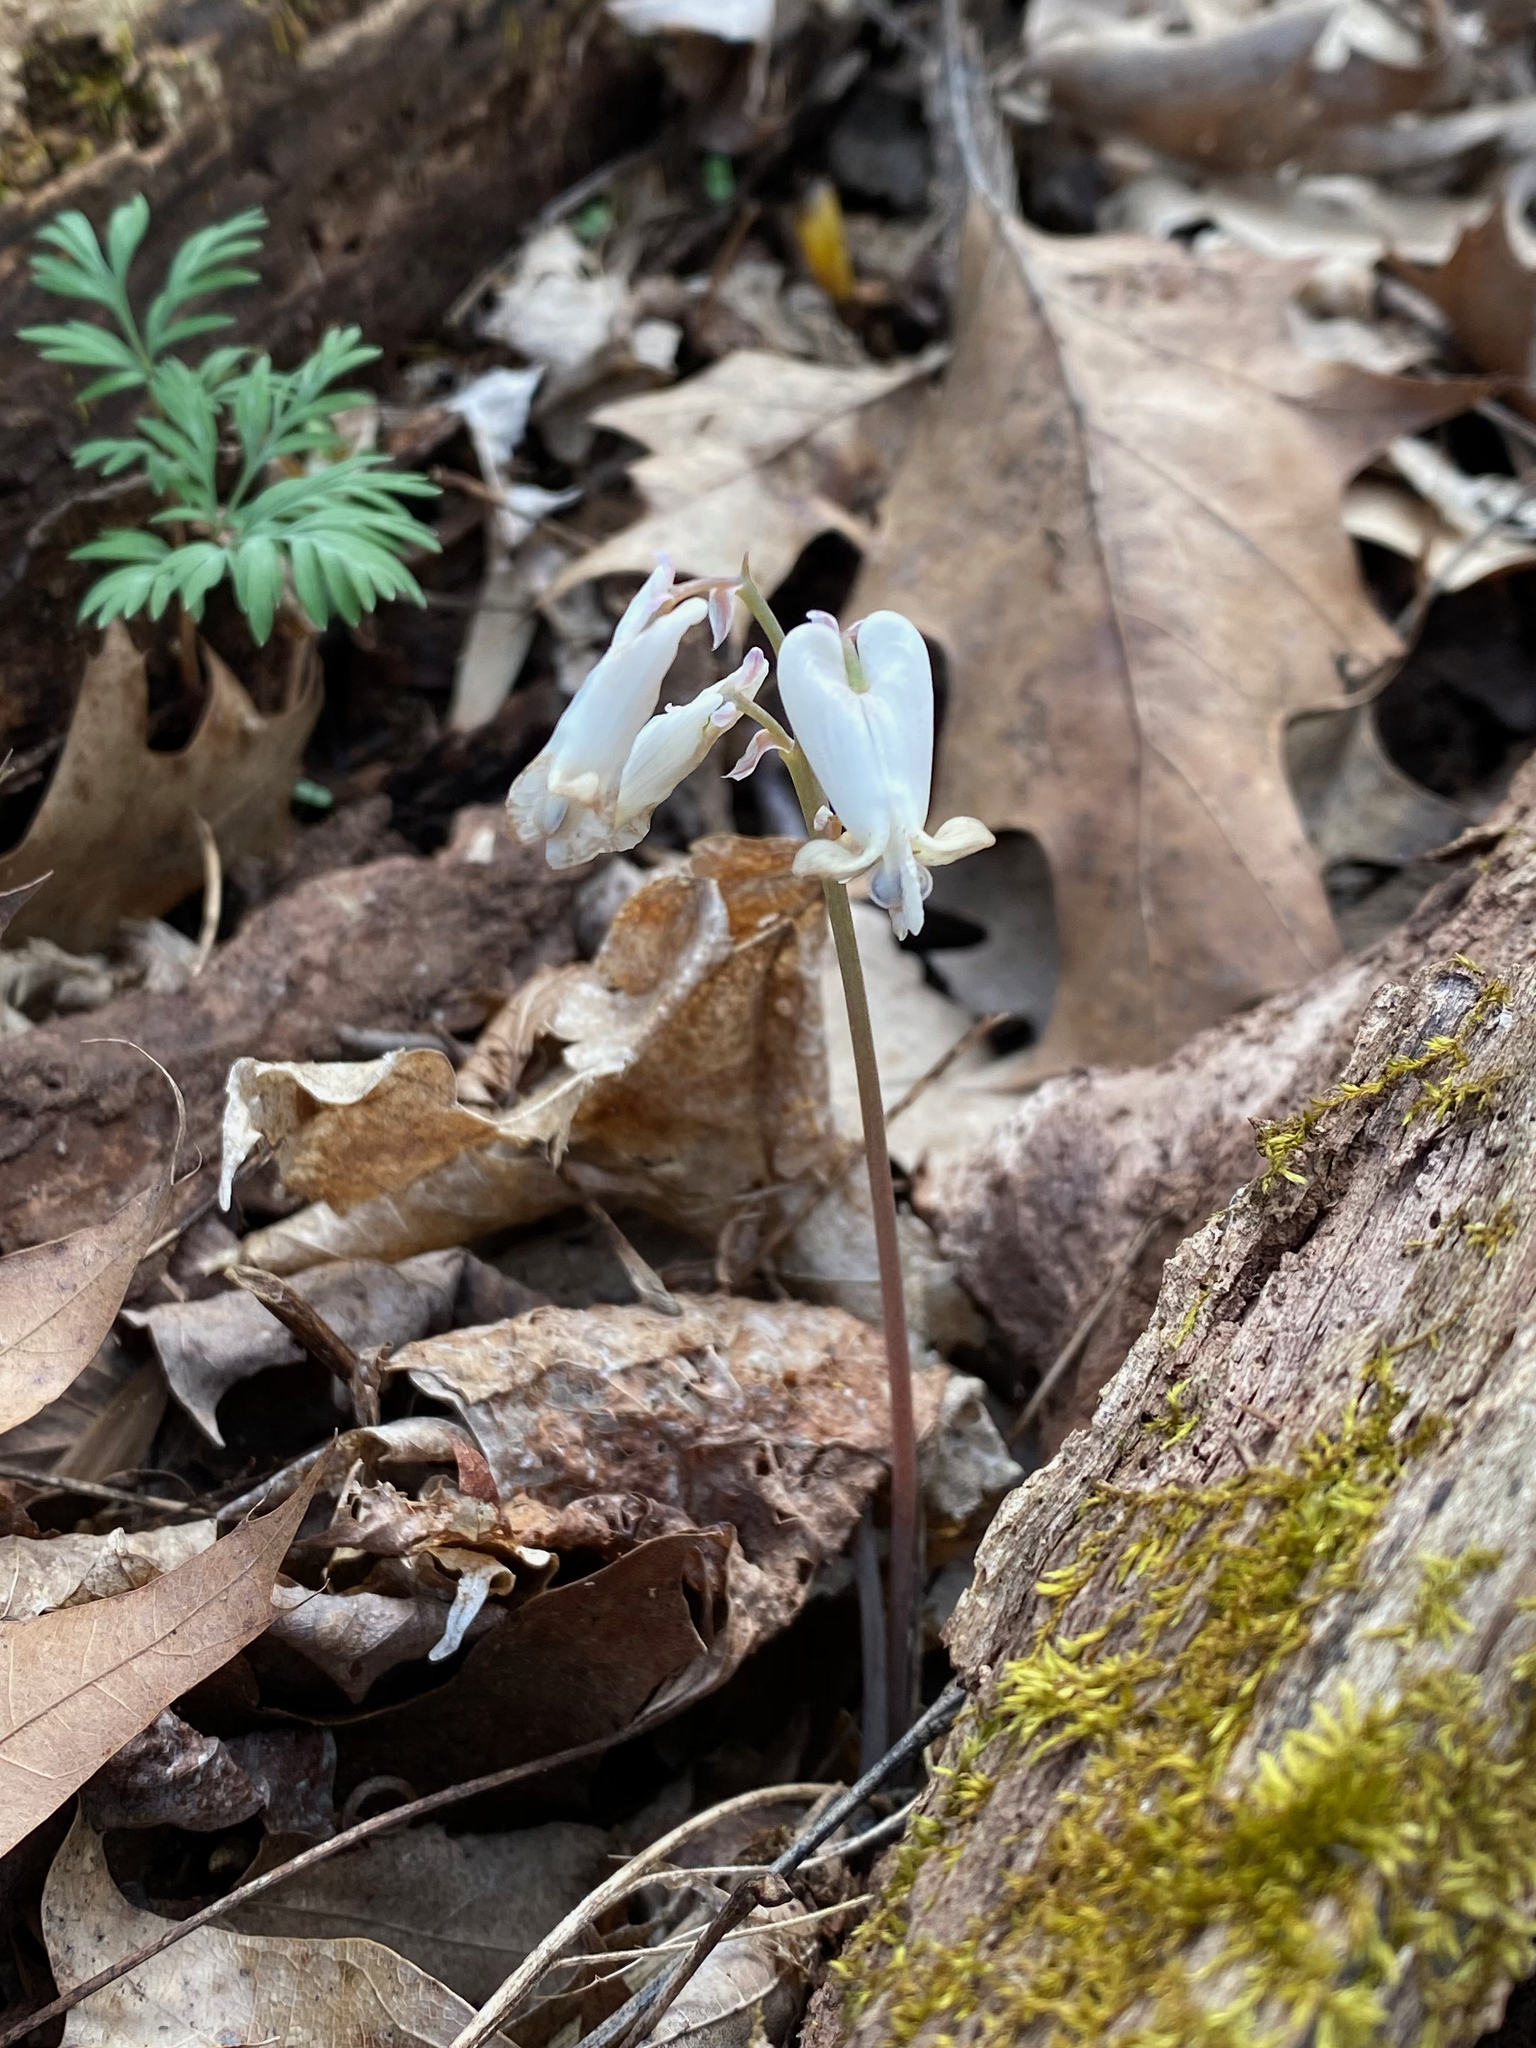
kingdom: Plantae
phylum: Tracheophyta
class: Magnoliopsida
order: Ranunculales
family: Papaveraceae
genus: Dicentra
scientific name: Dicentra canadensis
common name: Squirrel-corn
